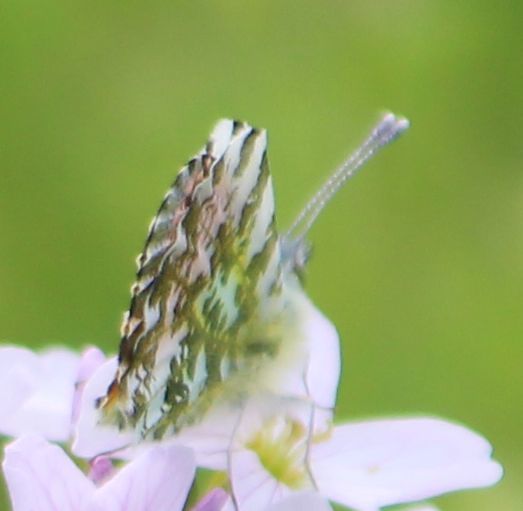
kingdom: Animalia
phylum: Arthropoda
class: Insecta
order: Lepidoptera
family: Pieridae
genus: Anthocharis
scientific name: Anthocharis cardamines
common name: Orange-tip
